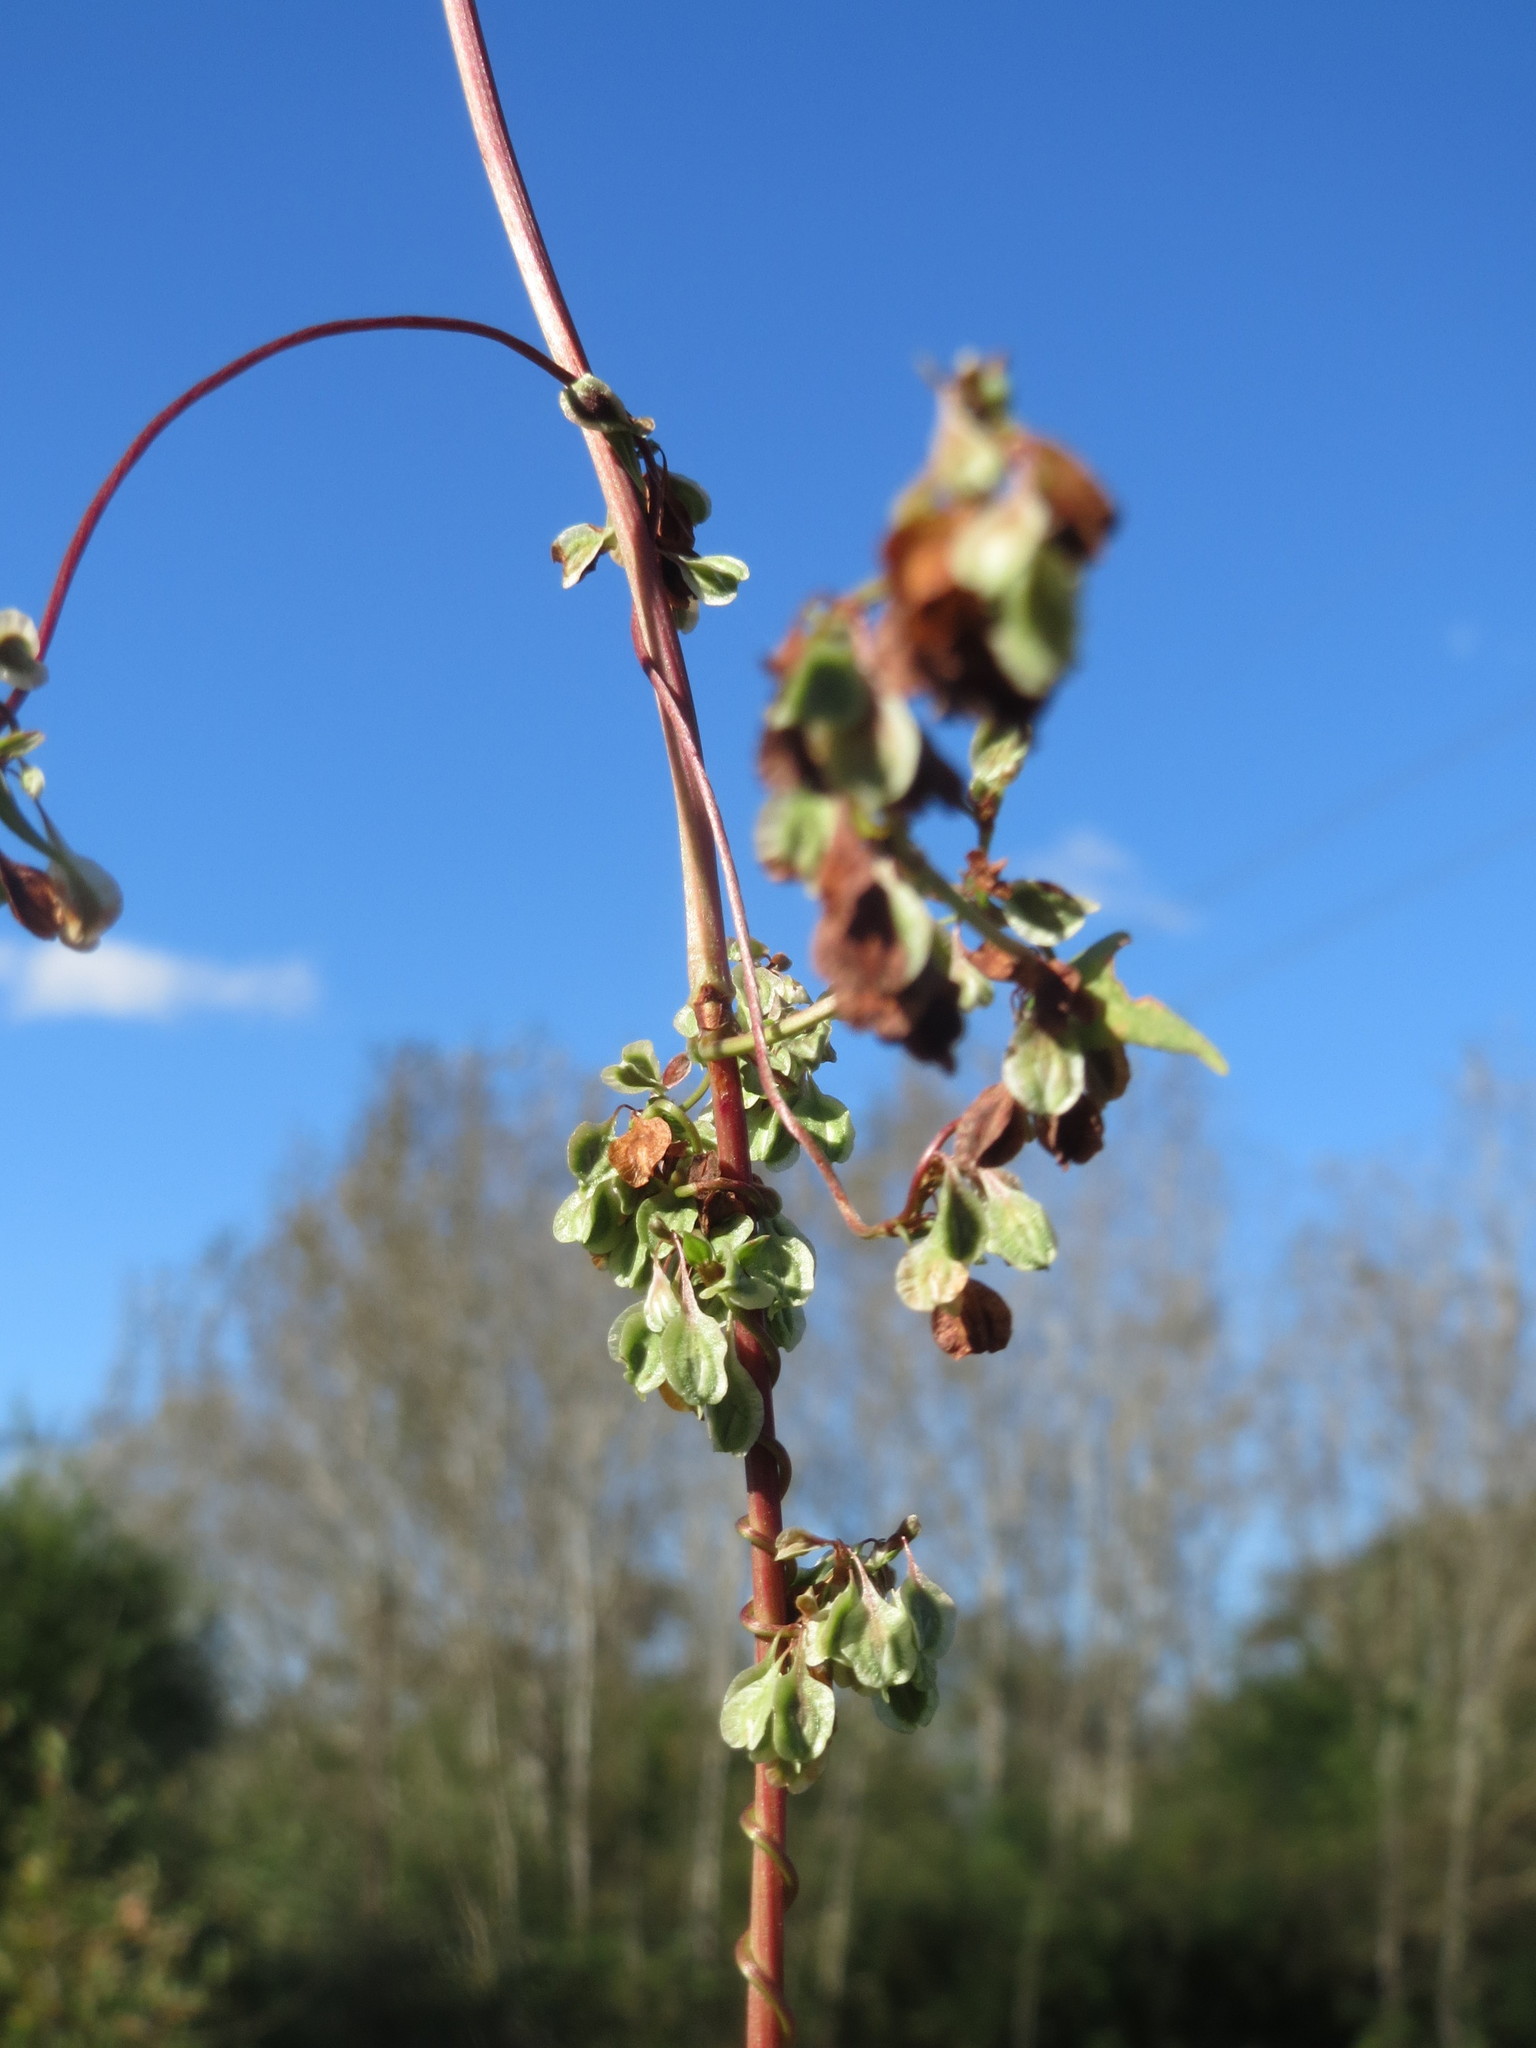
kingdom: Plantae
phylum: Tracheophyta
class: Magnoliopsida
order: Caryophyllales
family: Polygonaceae
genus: Fallopia
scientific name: Fallopia dumetorum
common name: Copse-bindweed
